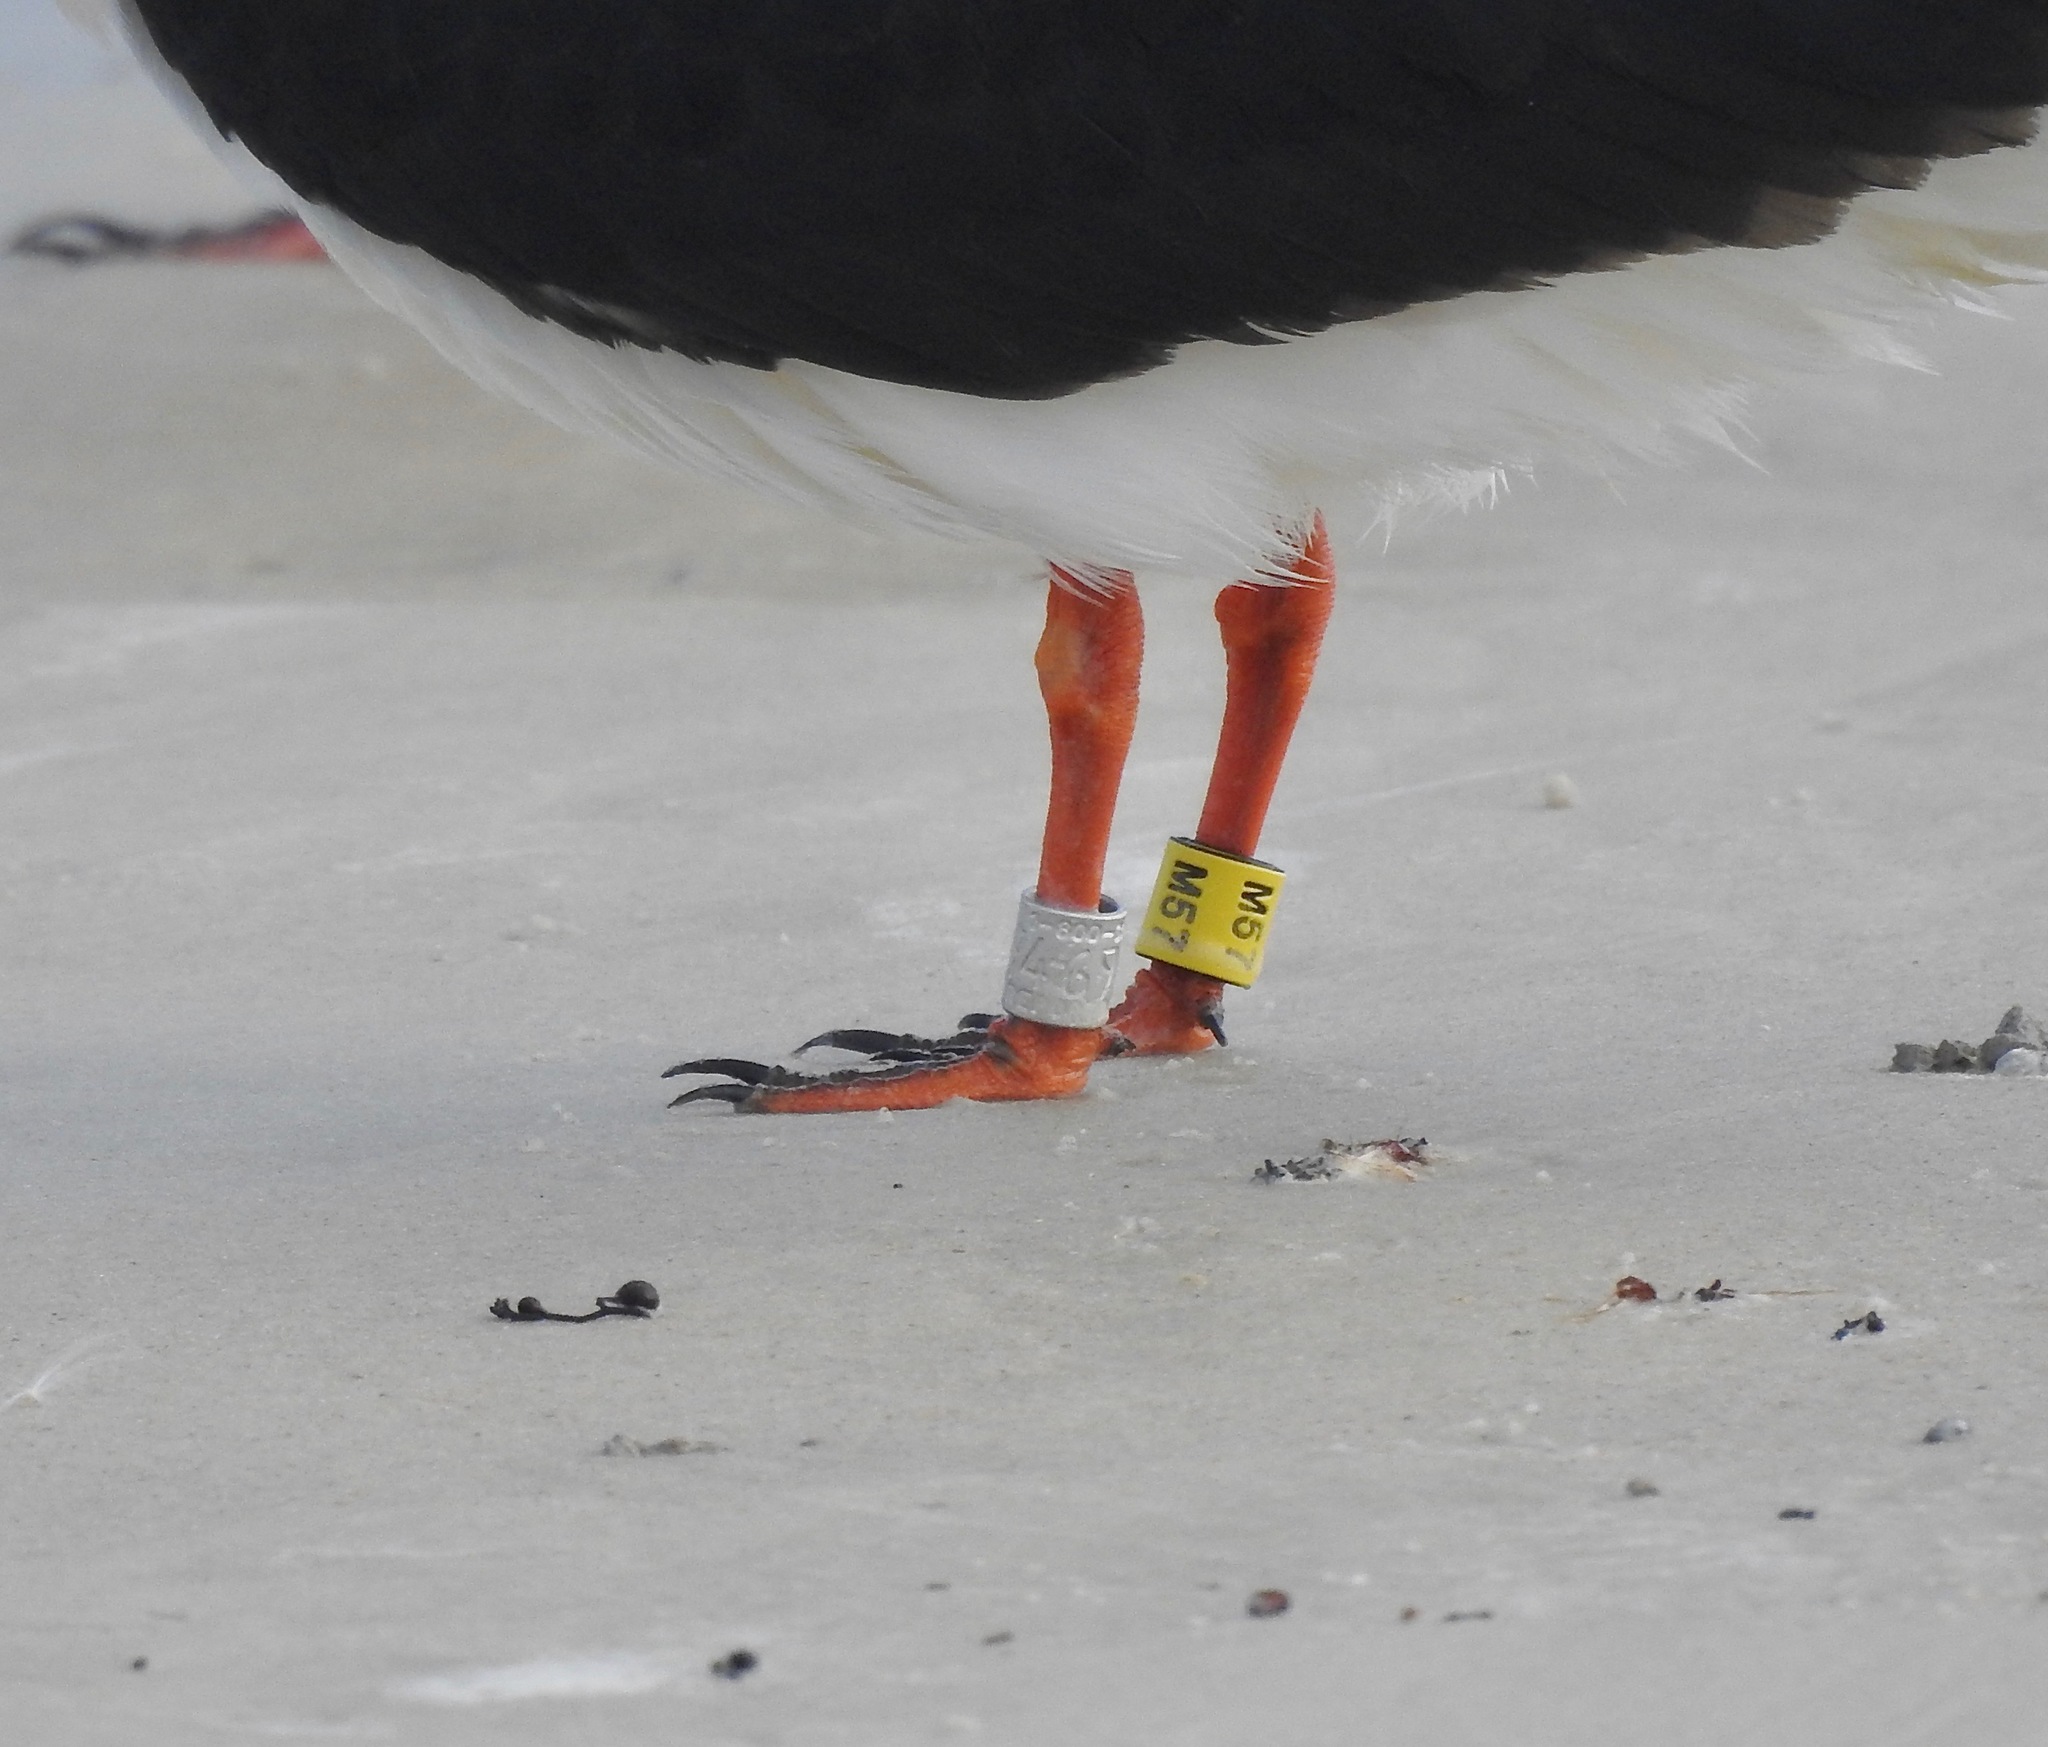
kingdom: Animalia
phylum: Chordata
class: Aves
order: Charadriiformes
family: Laridae
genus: Rynchops
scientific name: Rynchops niger
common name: Black skimmer
